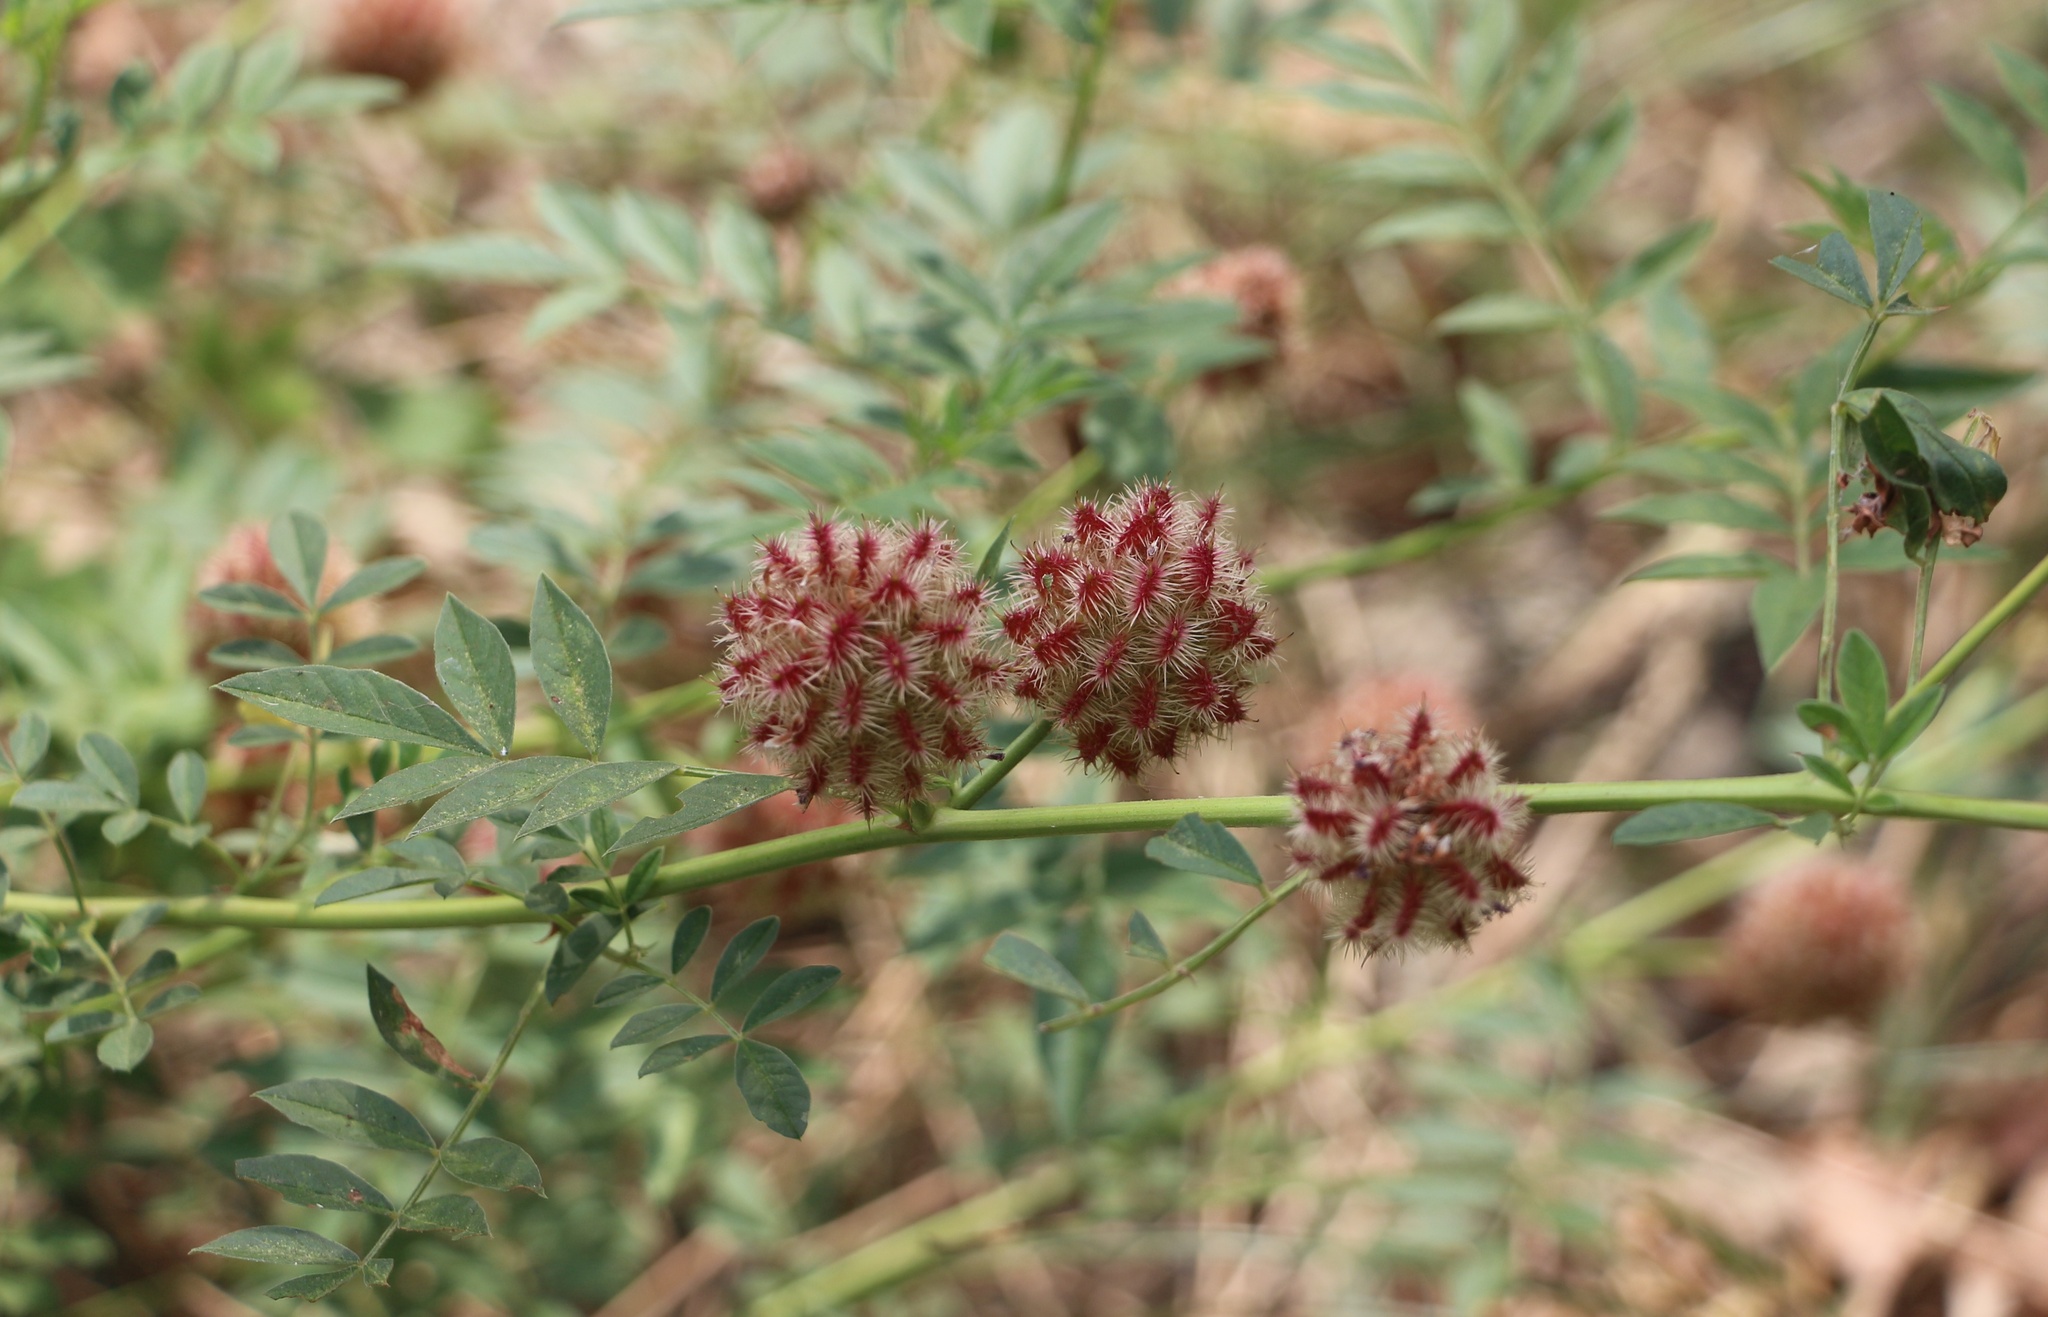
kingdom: Plantae
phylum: Tracheophyta
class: Magnoliopsida
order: Fabales
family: Fabaceae
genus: Glycyrrhiza
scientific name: Glycyrrhiza echinata
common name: German liquorice
